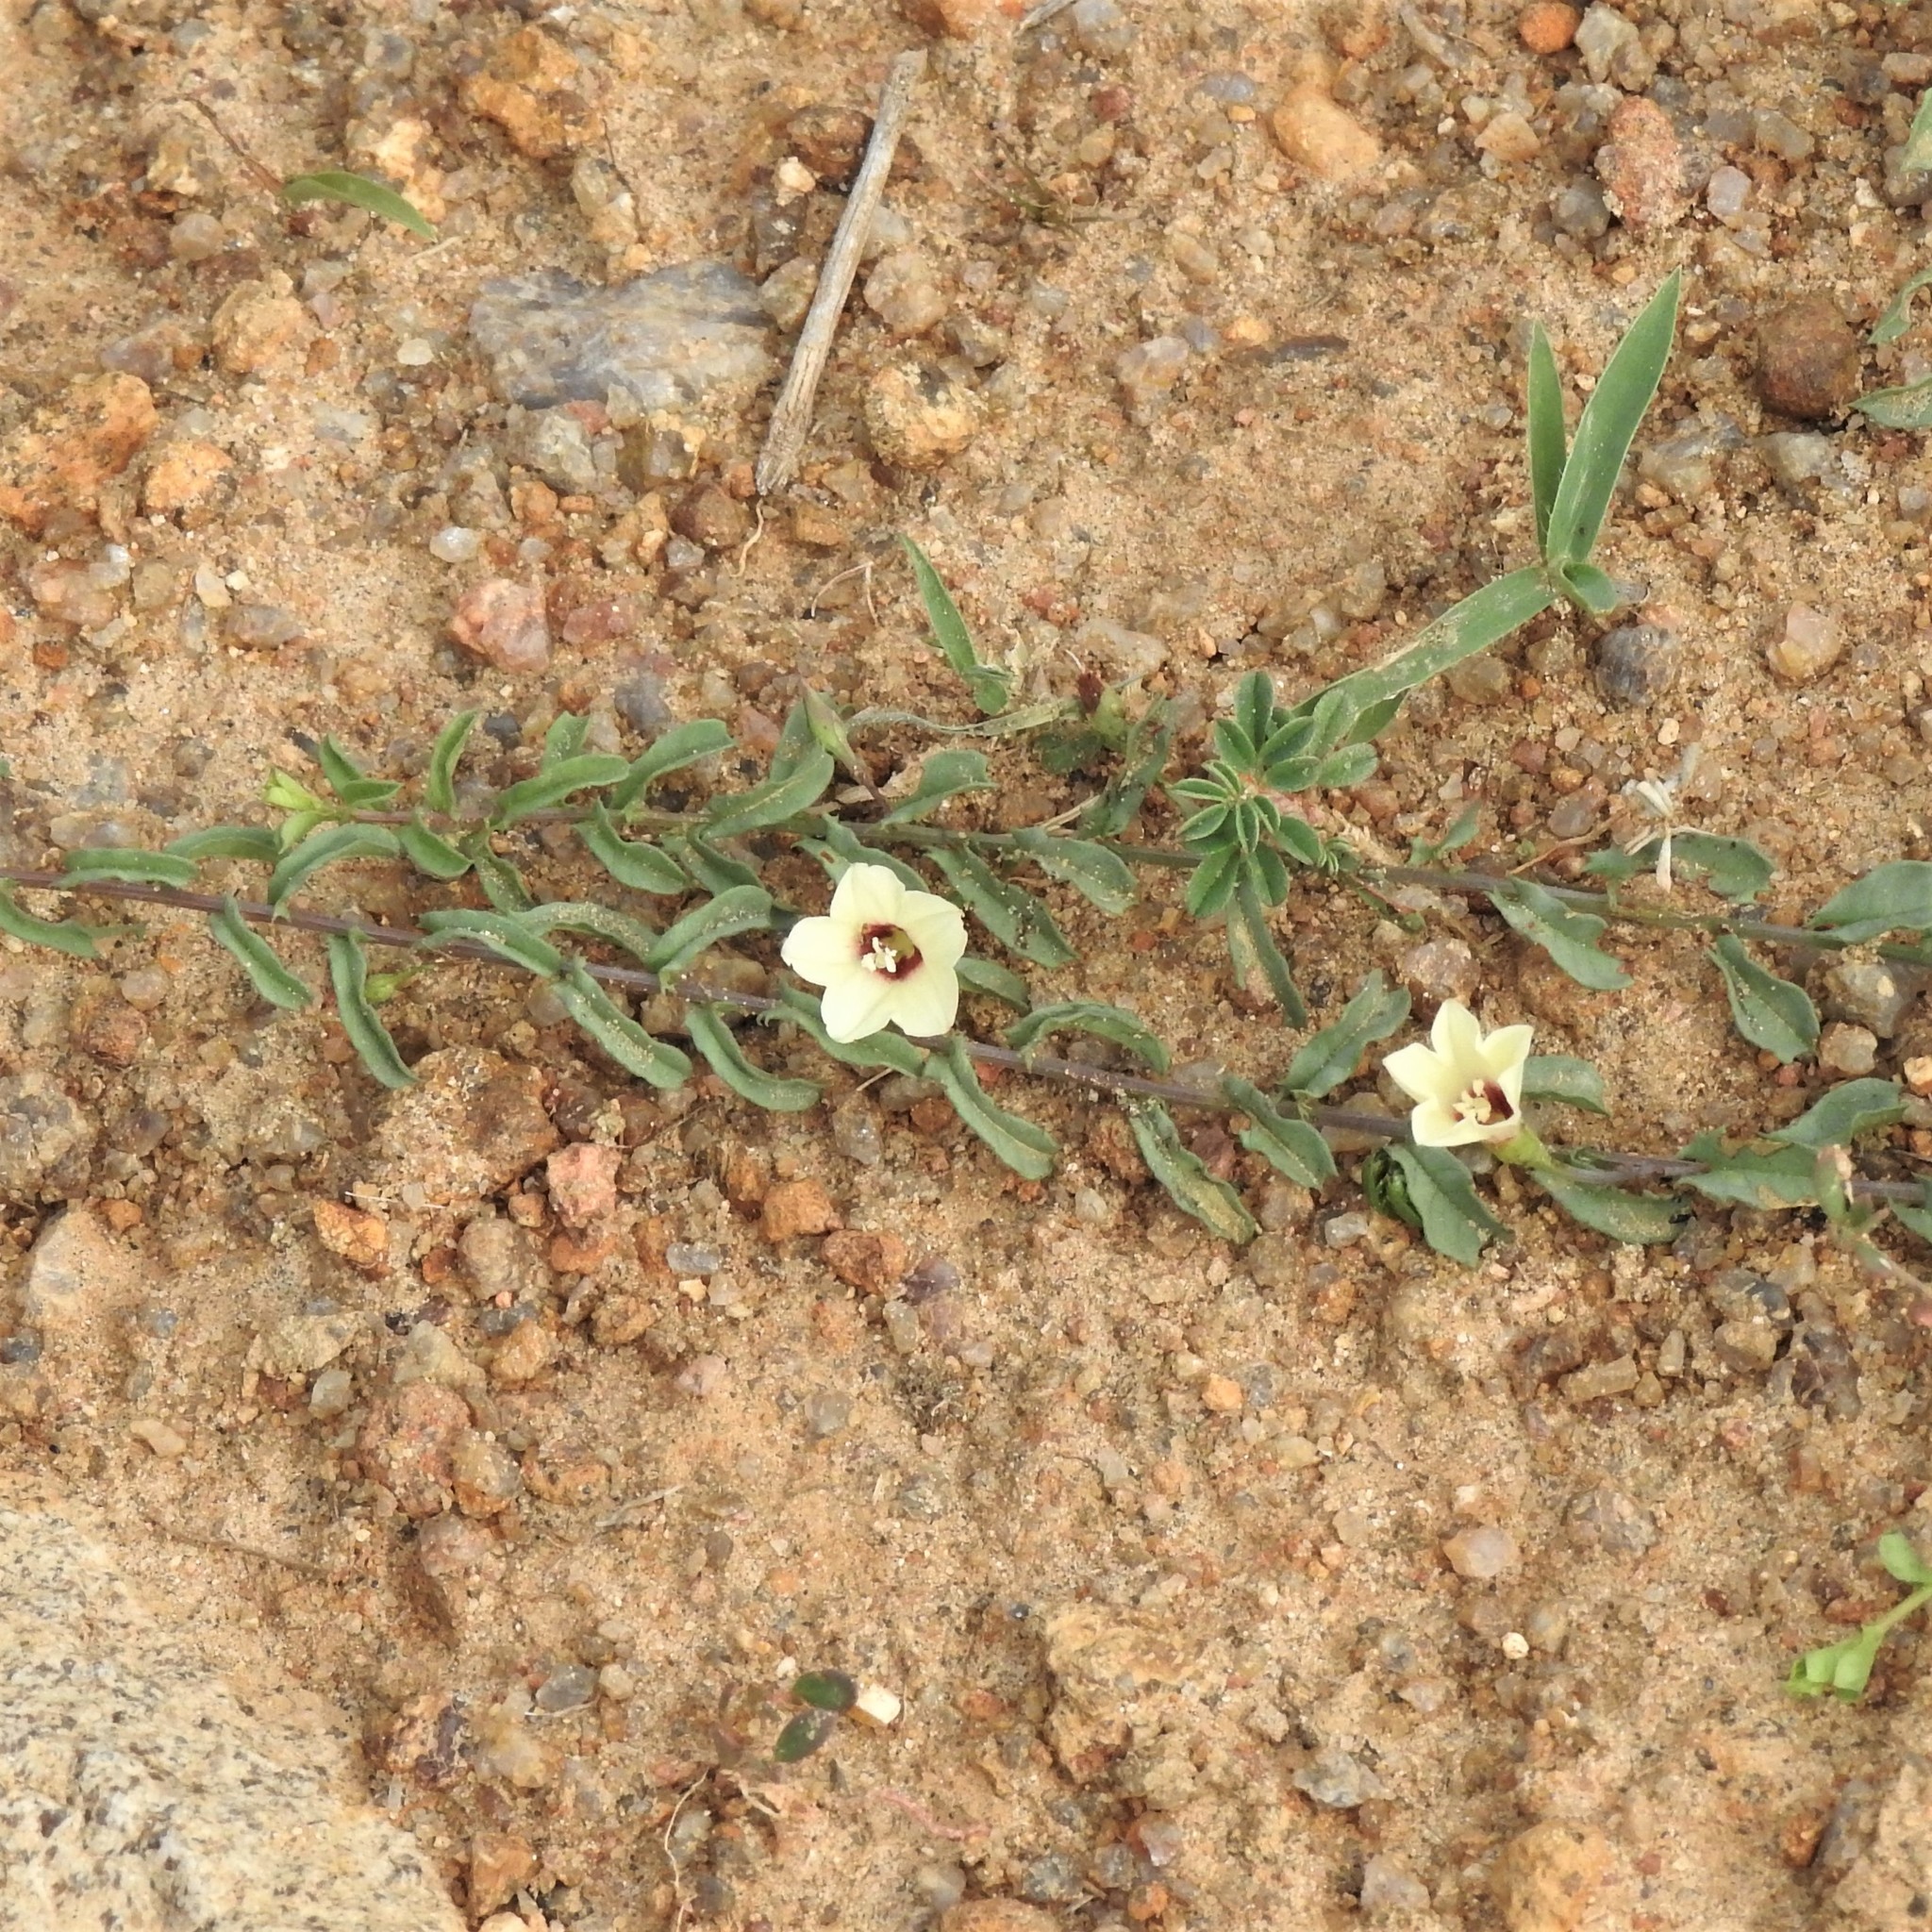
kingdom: Plantae
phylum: Tracheophyta
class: Magnoliopsida
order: Solanales
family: Convolvulaceae
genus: Xenostegia
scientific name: Xenostegia tridentata
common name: African morningvine
